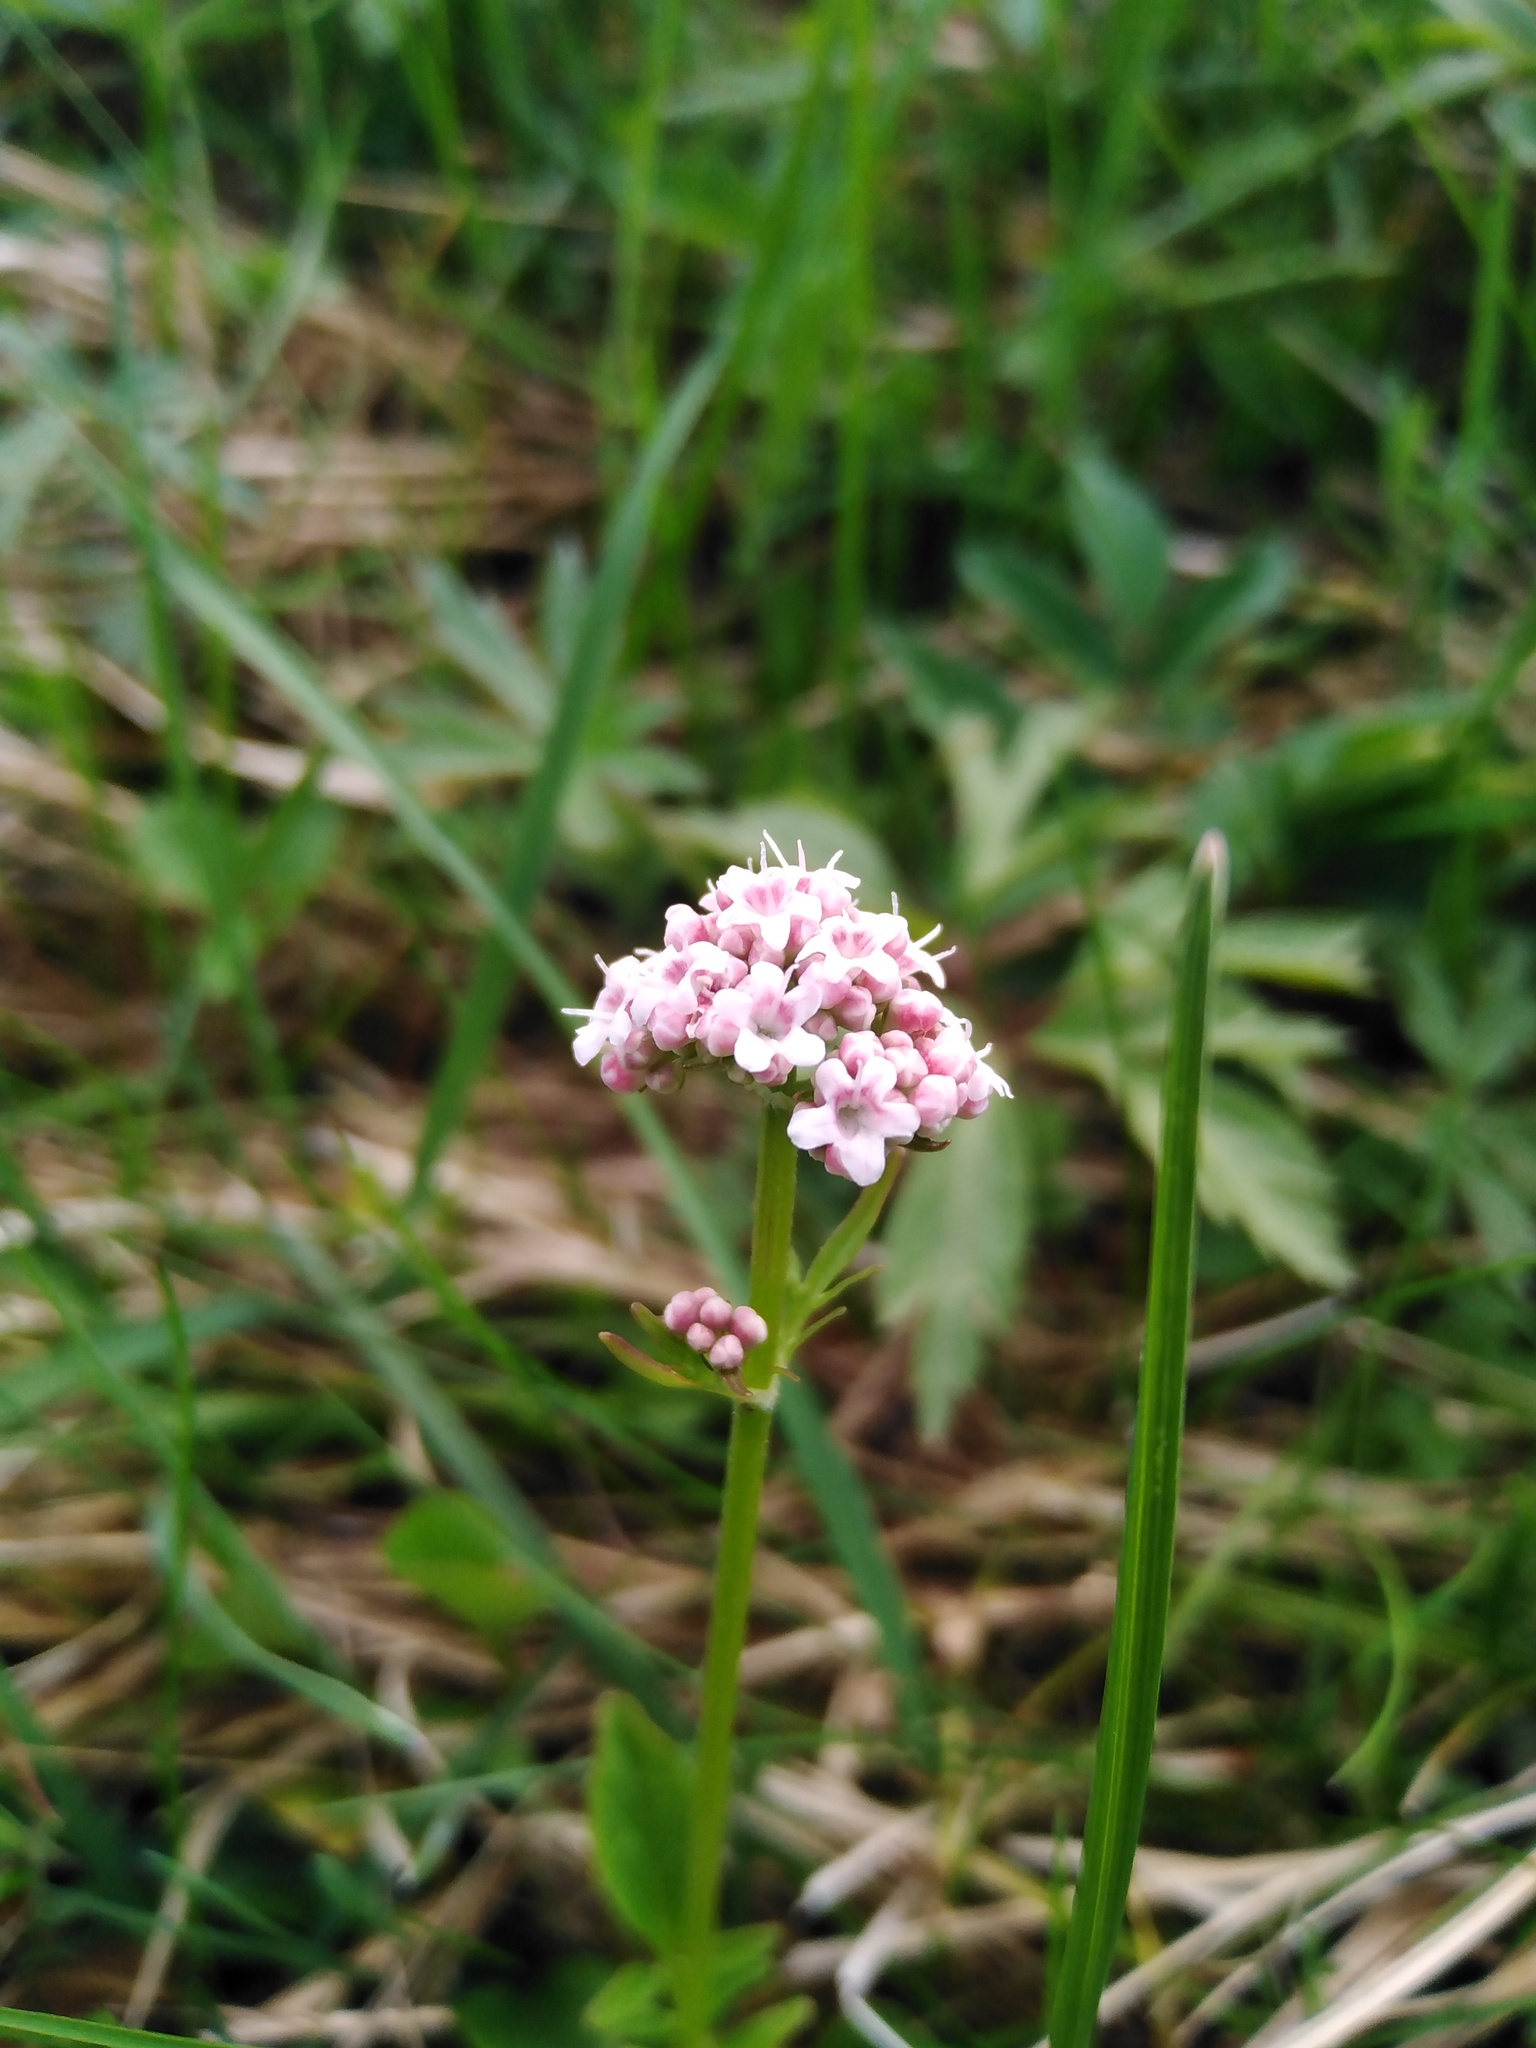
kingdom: Plantae
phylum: Tracheophyta
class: Magnoliopsida
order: Dipsacales
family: Caprifoliaceae
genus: Valeriana
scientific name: Valeriana dioica
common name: Marsh valerian
